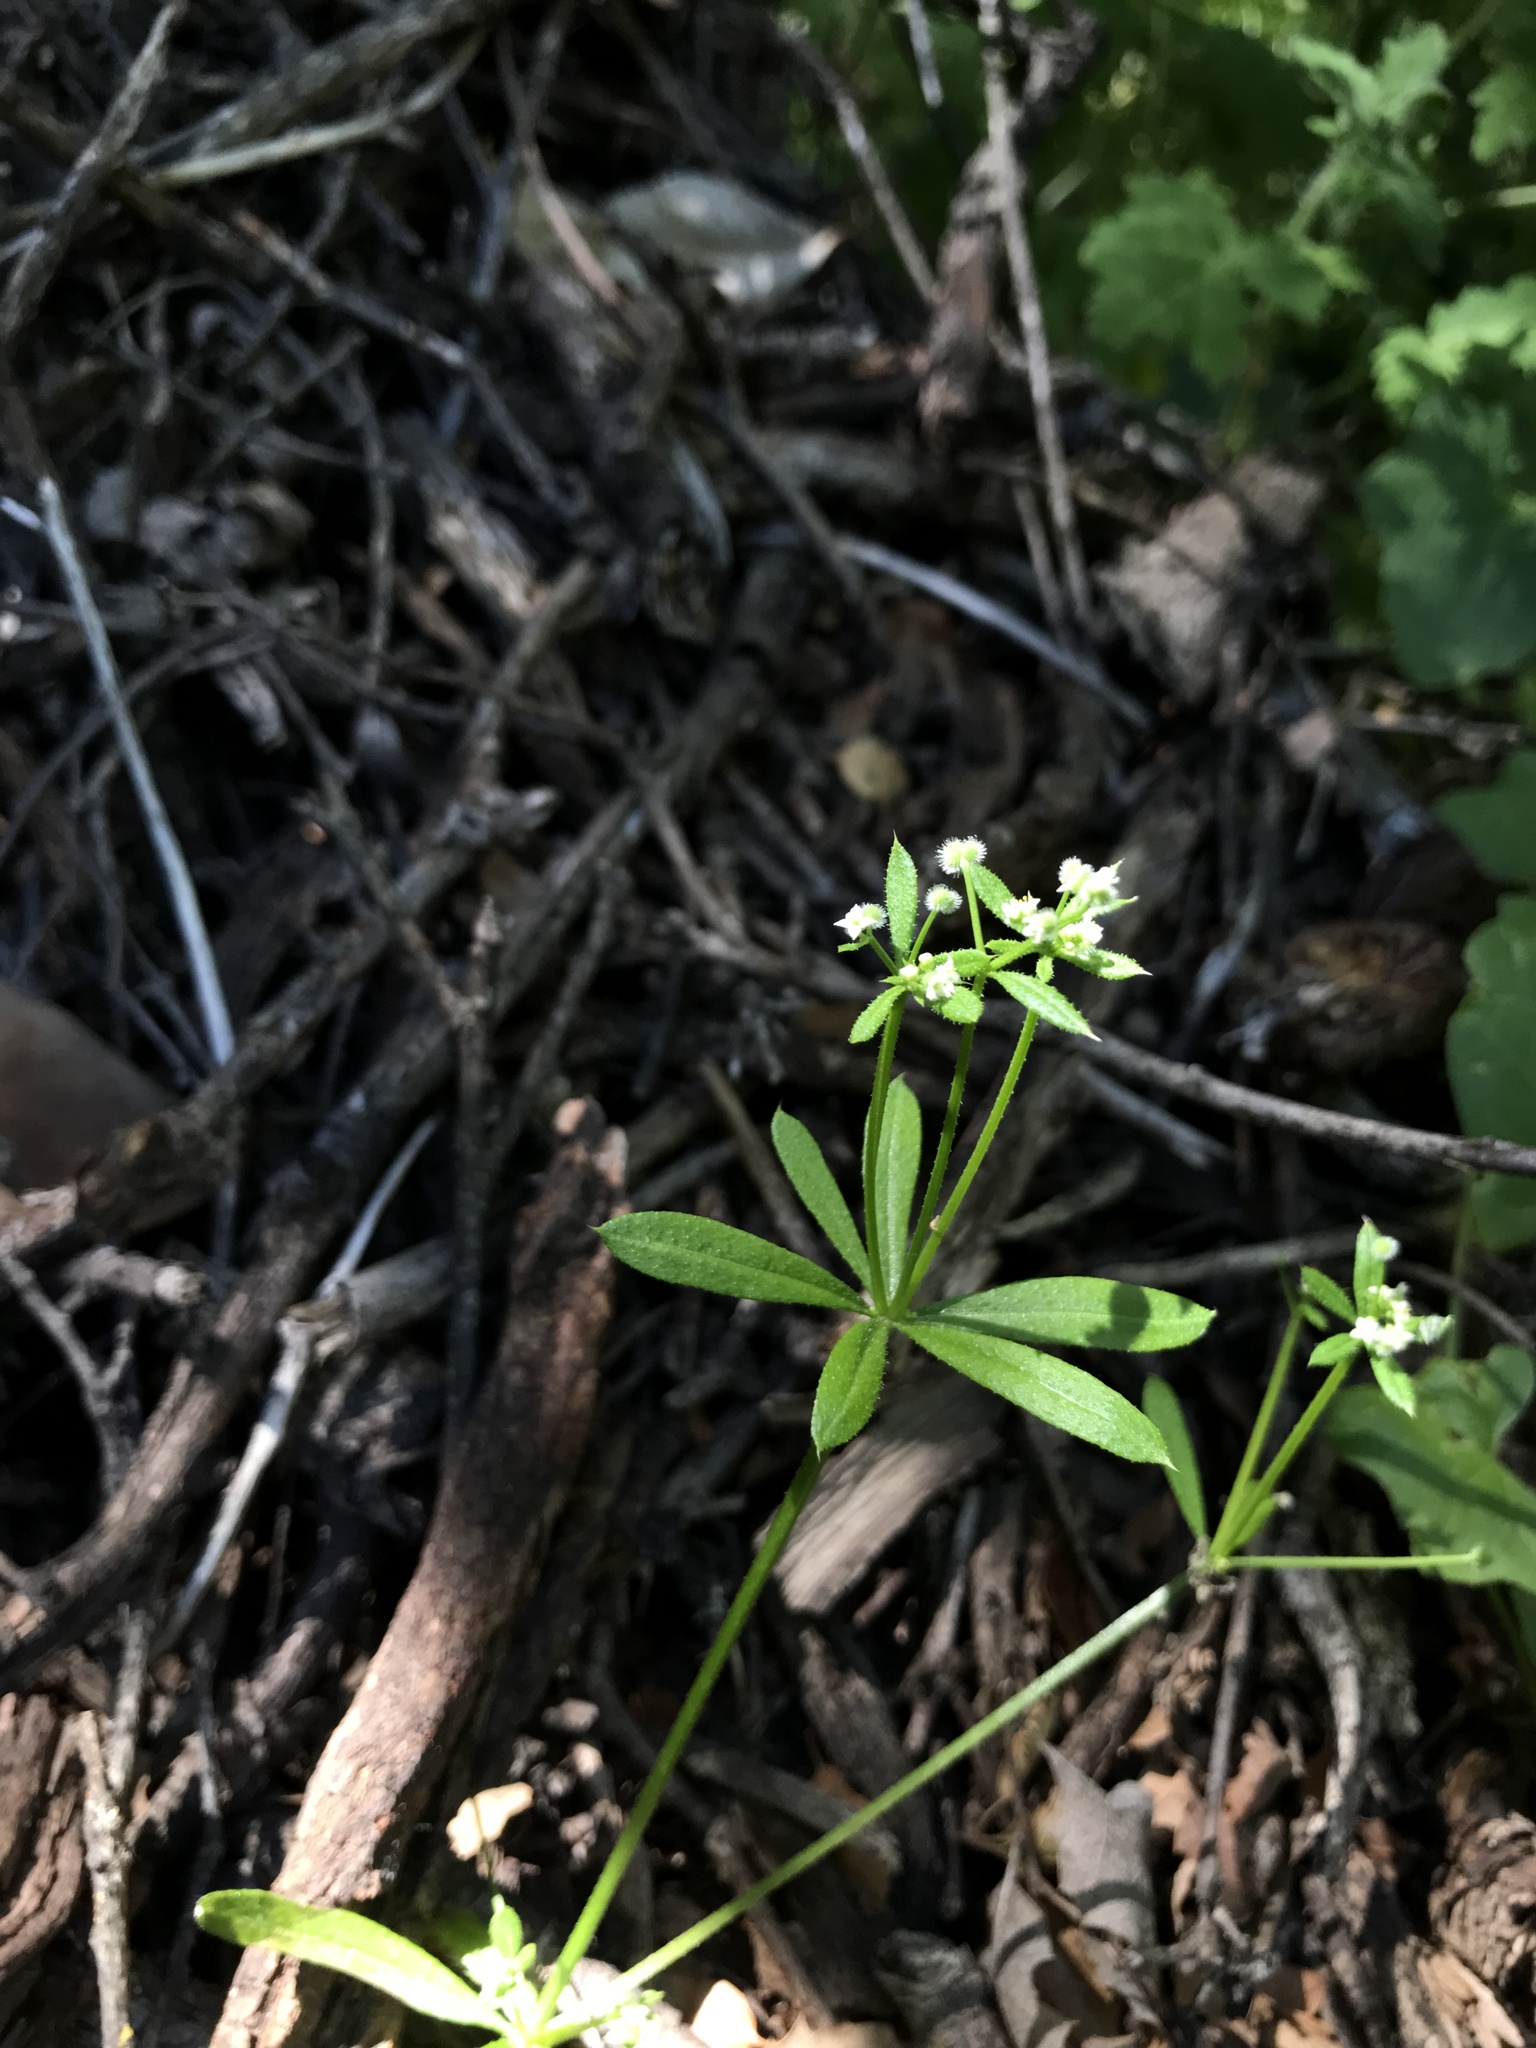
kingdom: Plantae
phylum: Tracheophyta
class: Magnoliopsida
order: Gentianales
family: Rubiaceae
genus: Galium
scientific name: Galium aparine
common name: Cleavers
